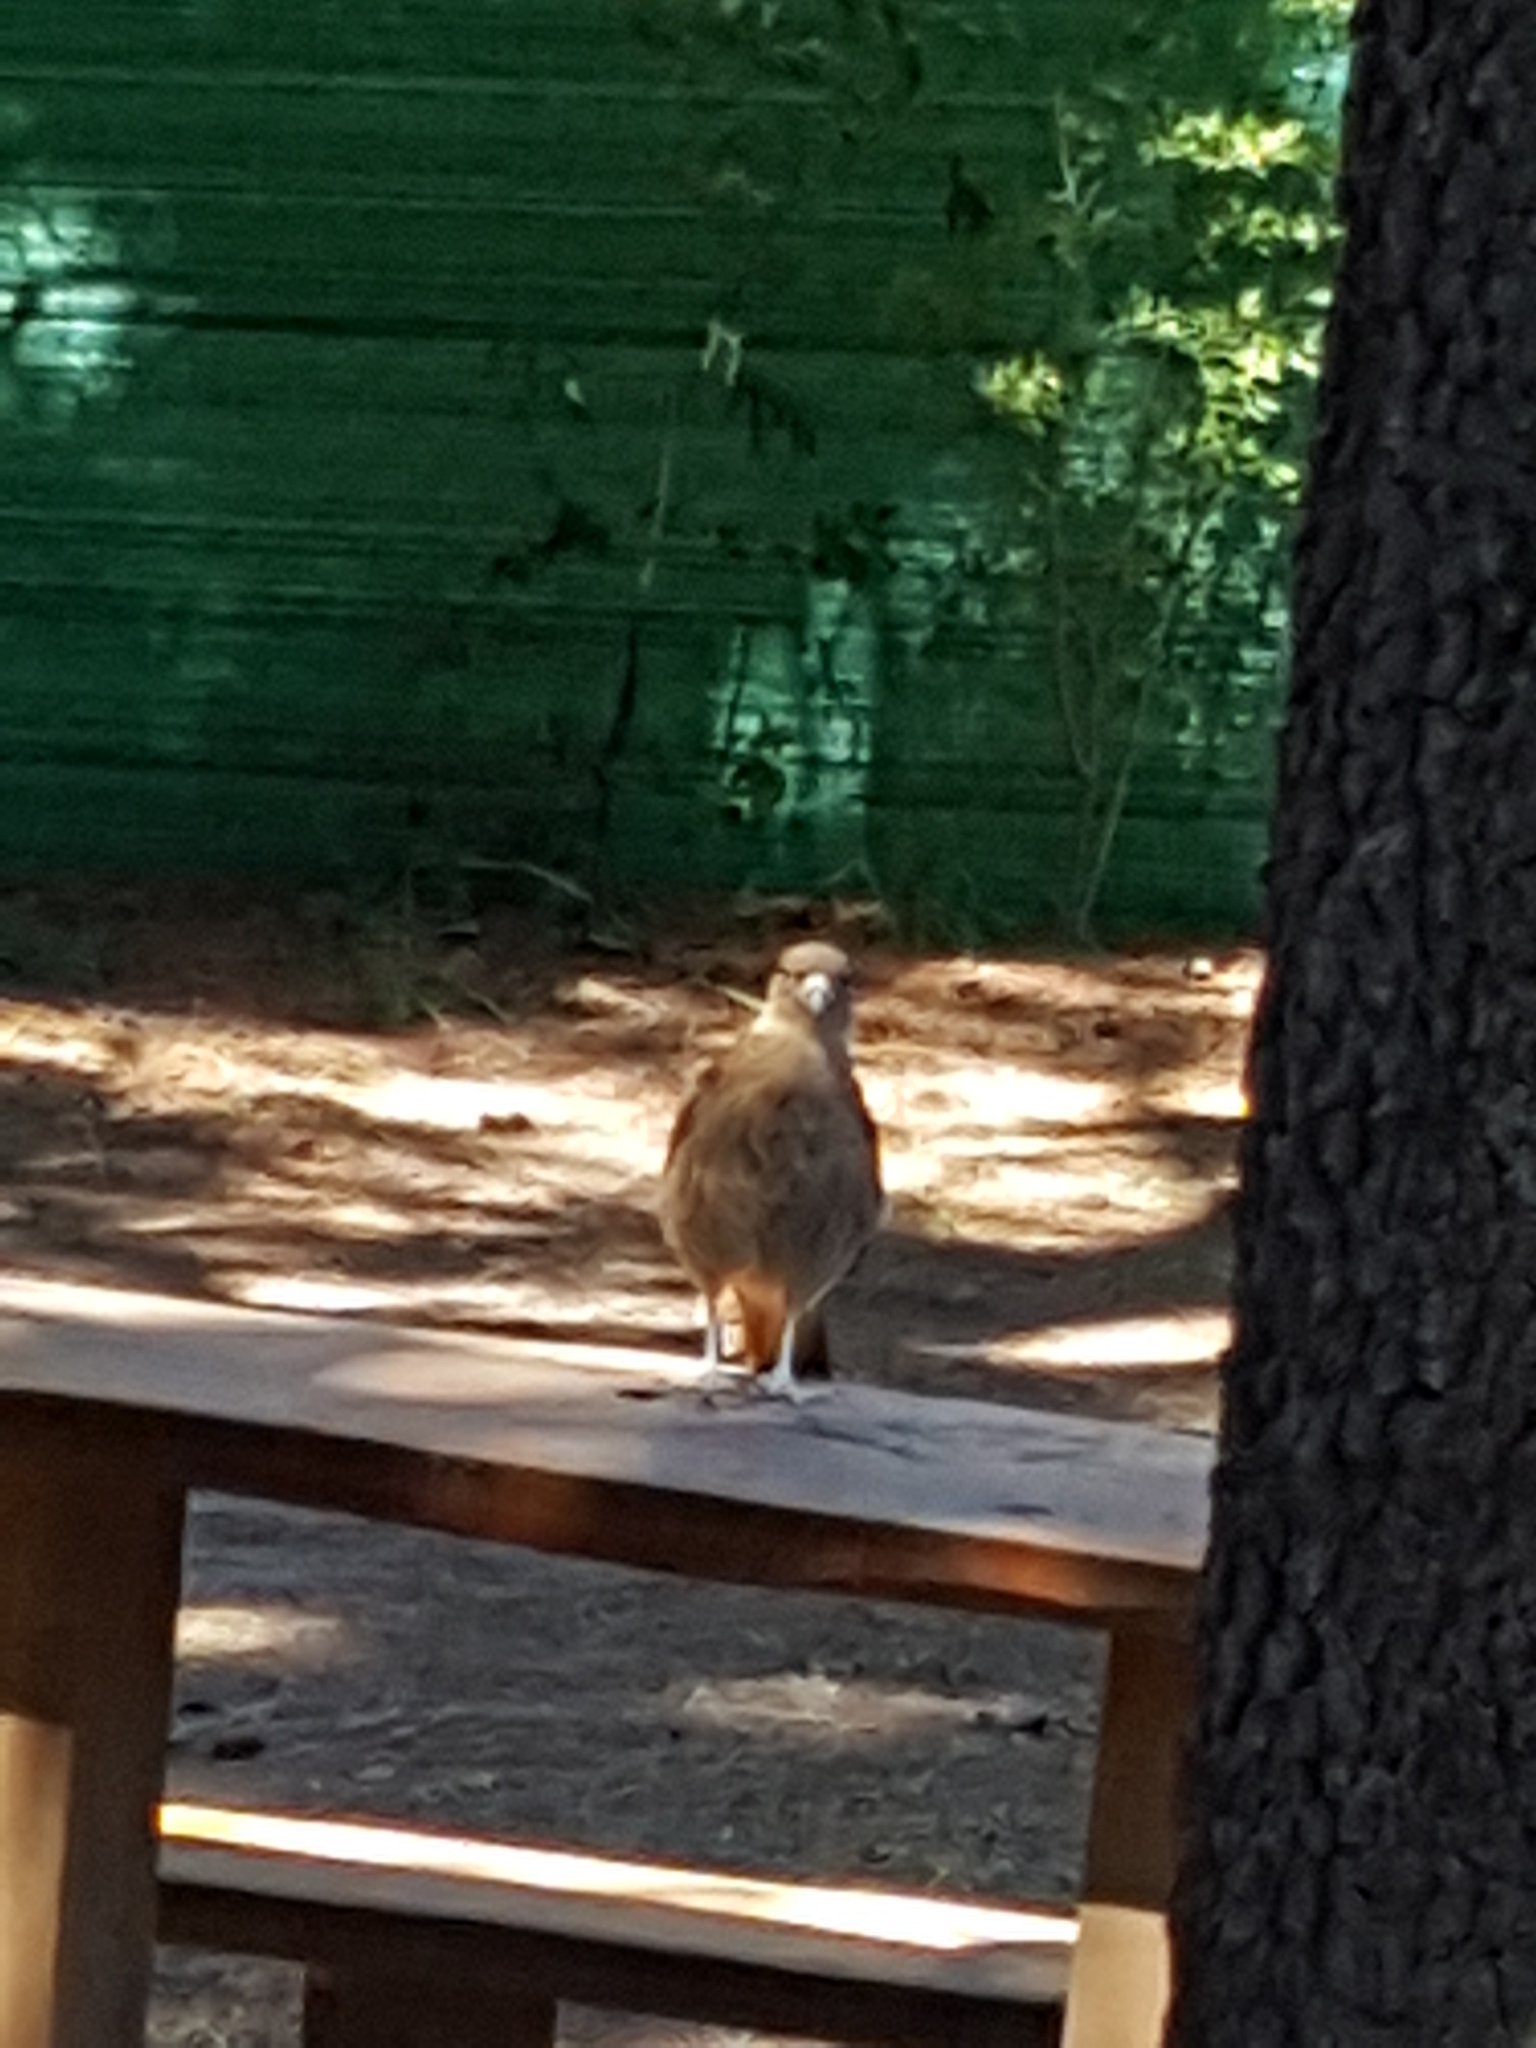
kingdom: Animalia
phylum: Chordata
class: Aves
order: Falconiformes
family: Falconidae
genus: Daptrius
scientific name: Daptrius
